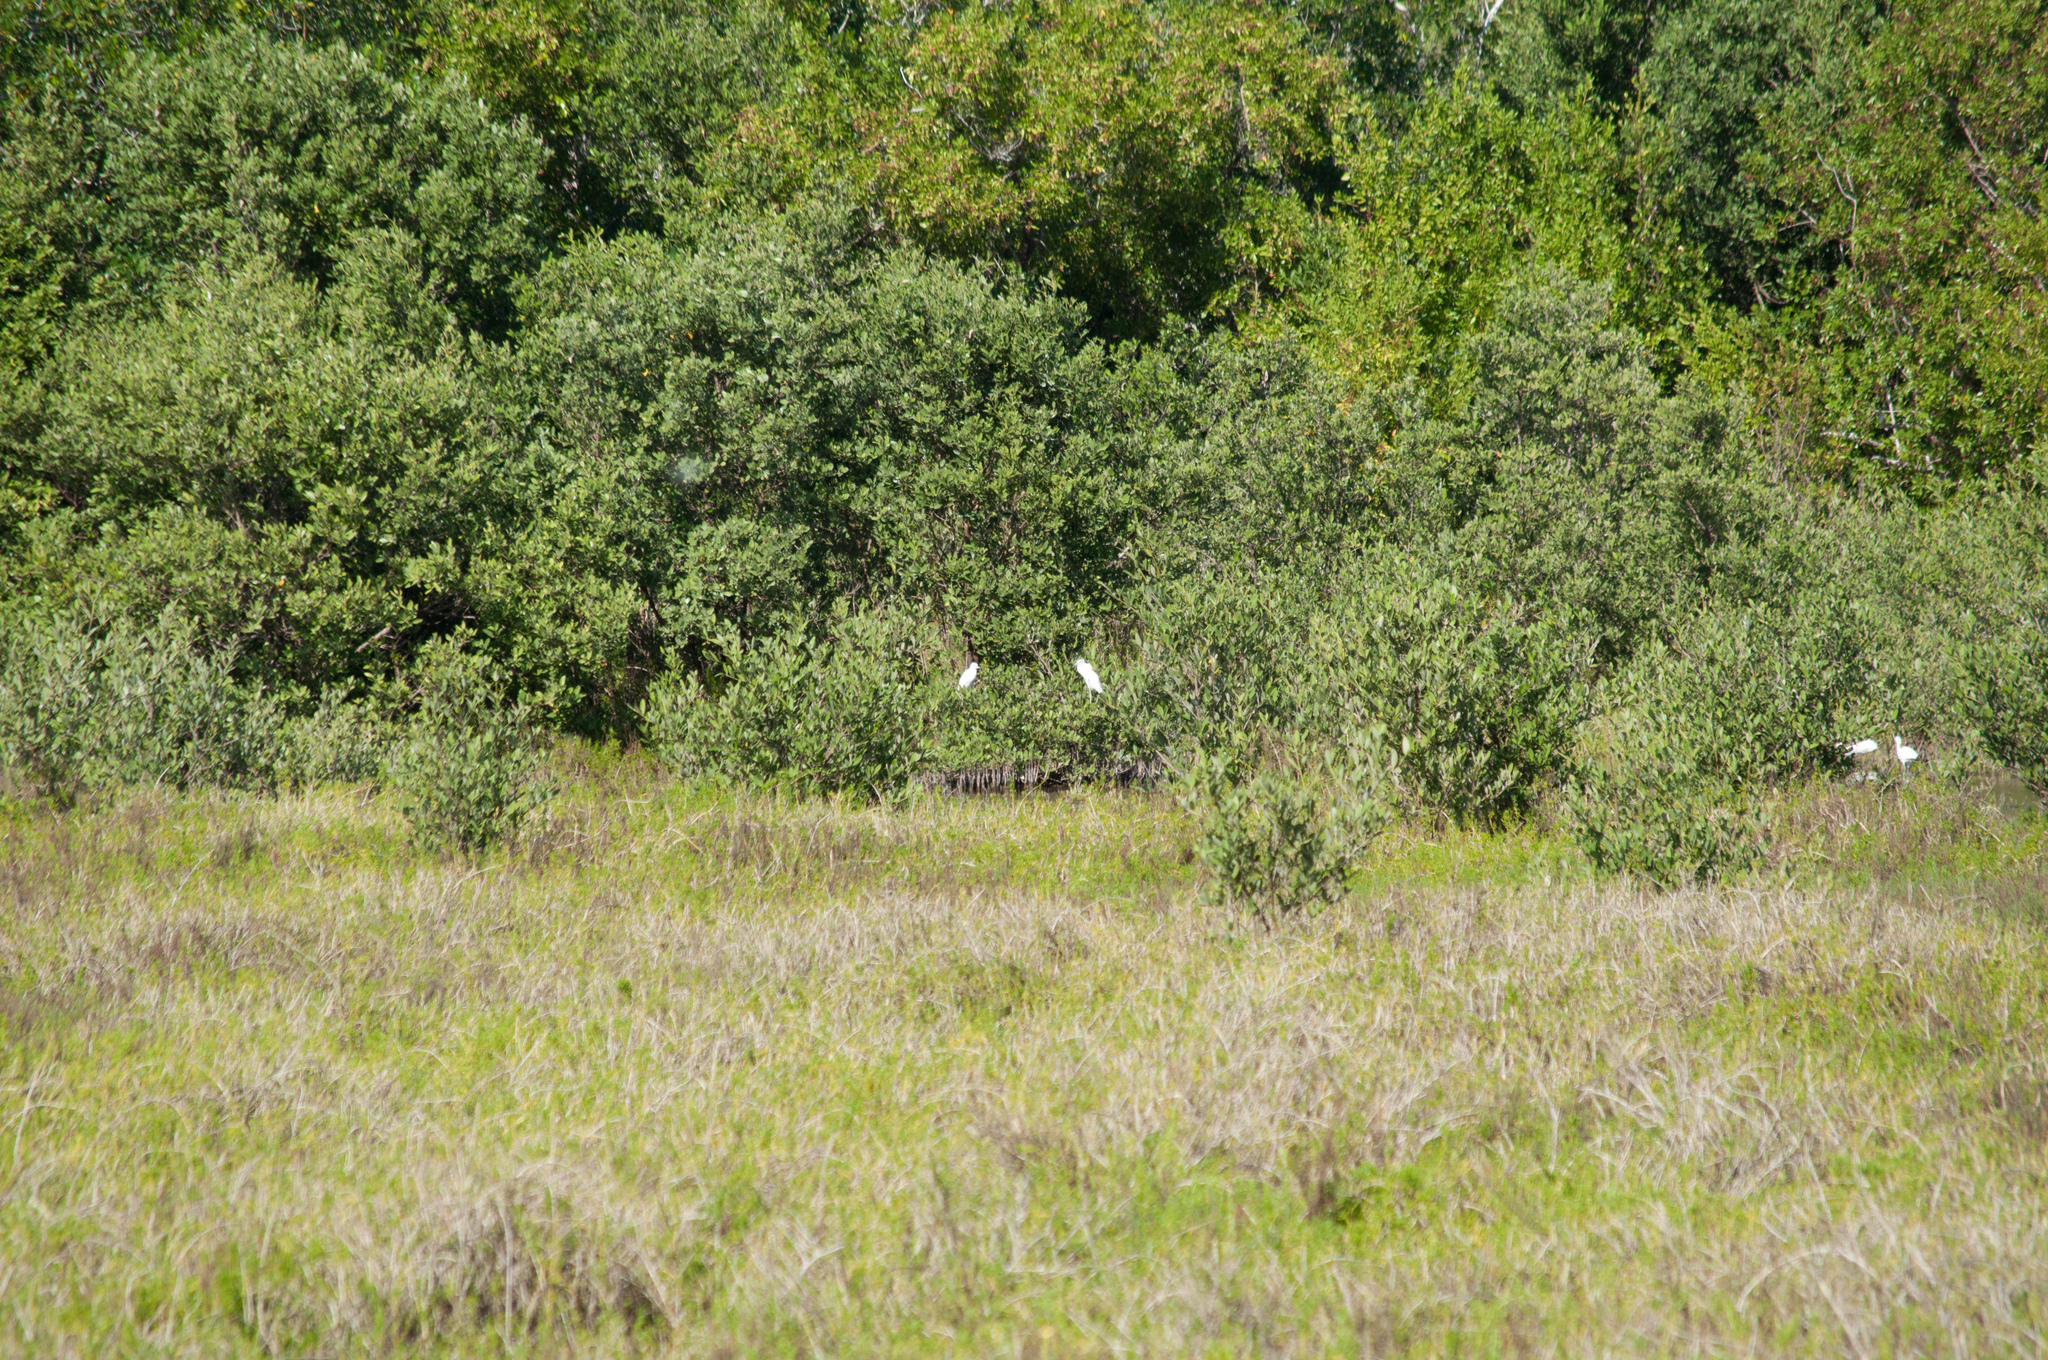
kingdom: Animalia
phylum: Chordata
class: Aves
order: Pelecaniformes
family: Ardeidae
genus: Egretta
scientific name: Egretta caerulea
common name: Little blue heron
